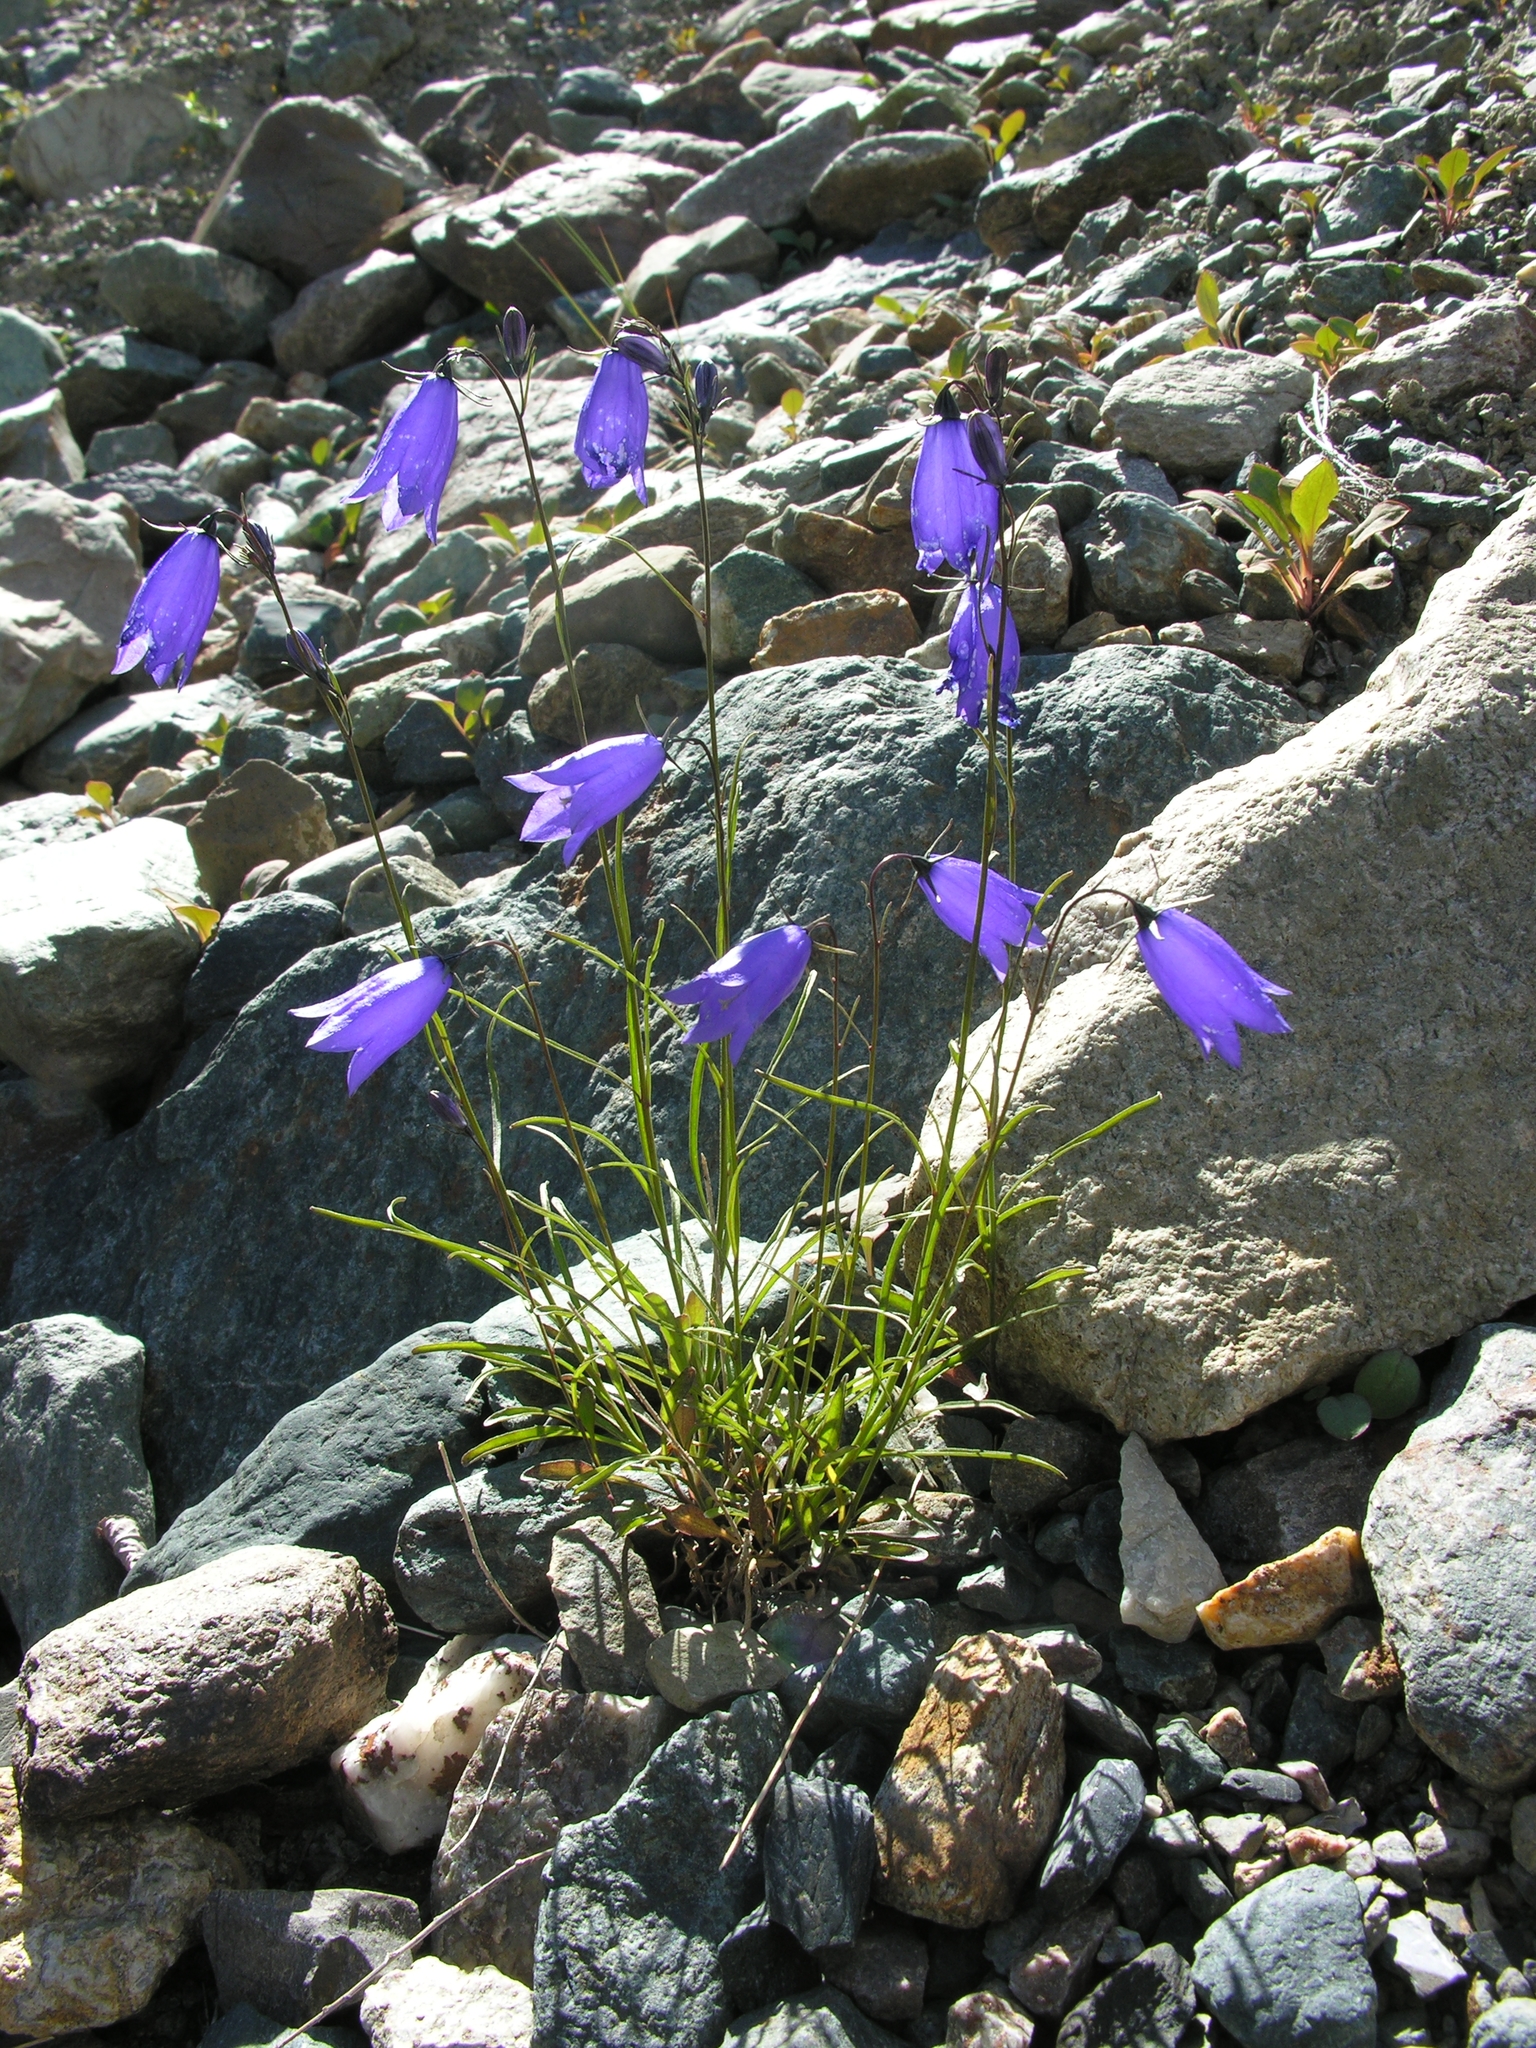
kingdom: Plantae
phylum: Tracheophyta
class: Magnoliopsida
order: Asterales
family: Campanulaceae
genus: Campanula
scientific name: Campanula rotundifolia
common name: Harebell
